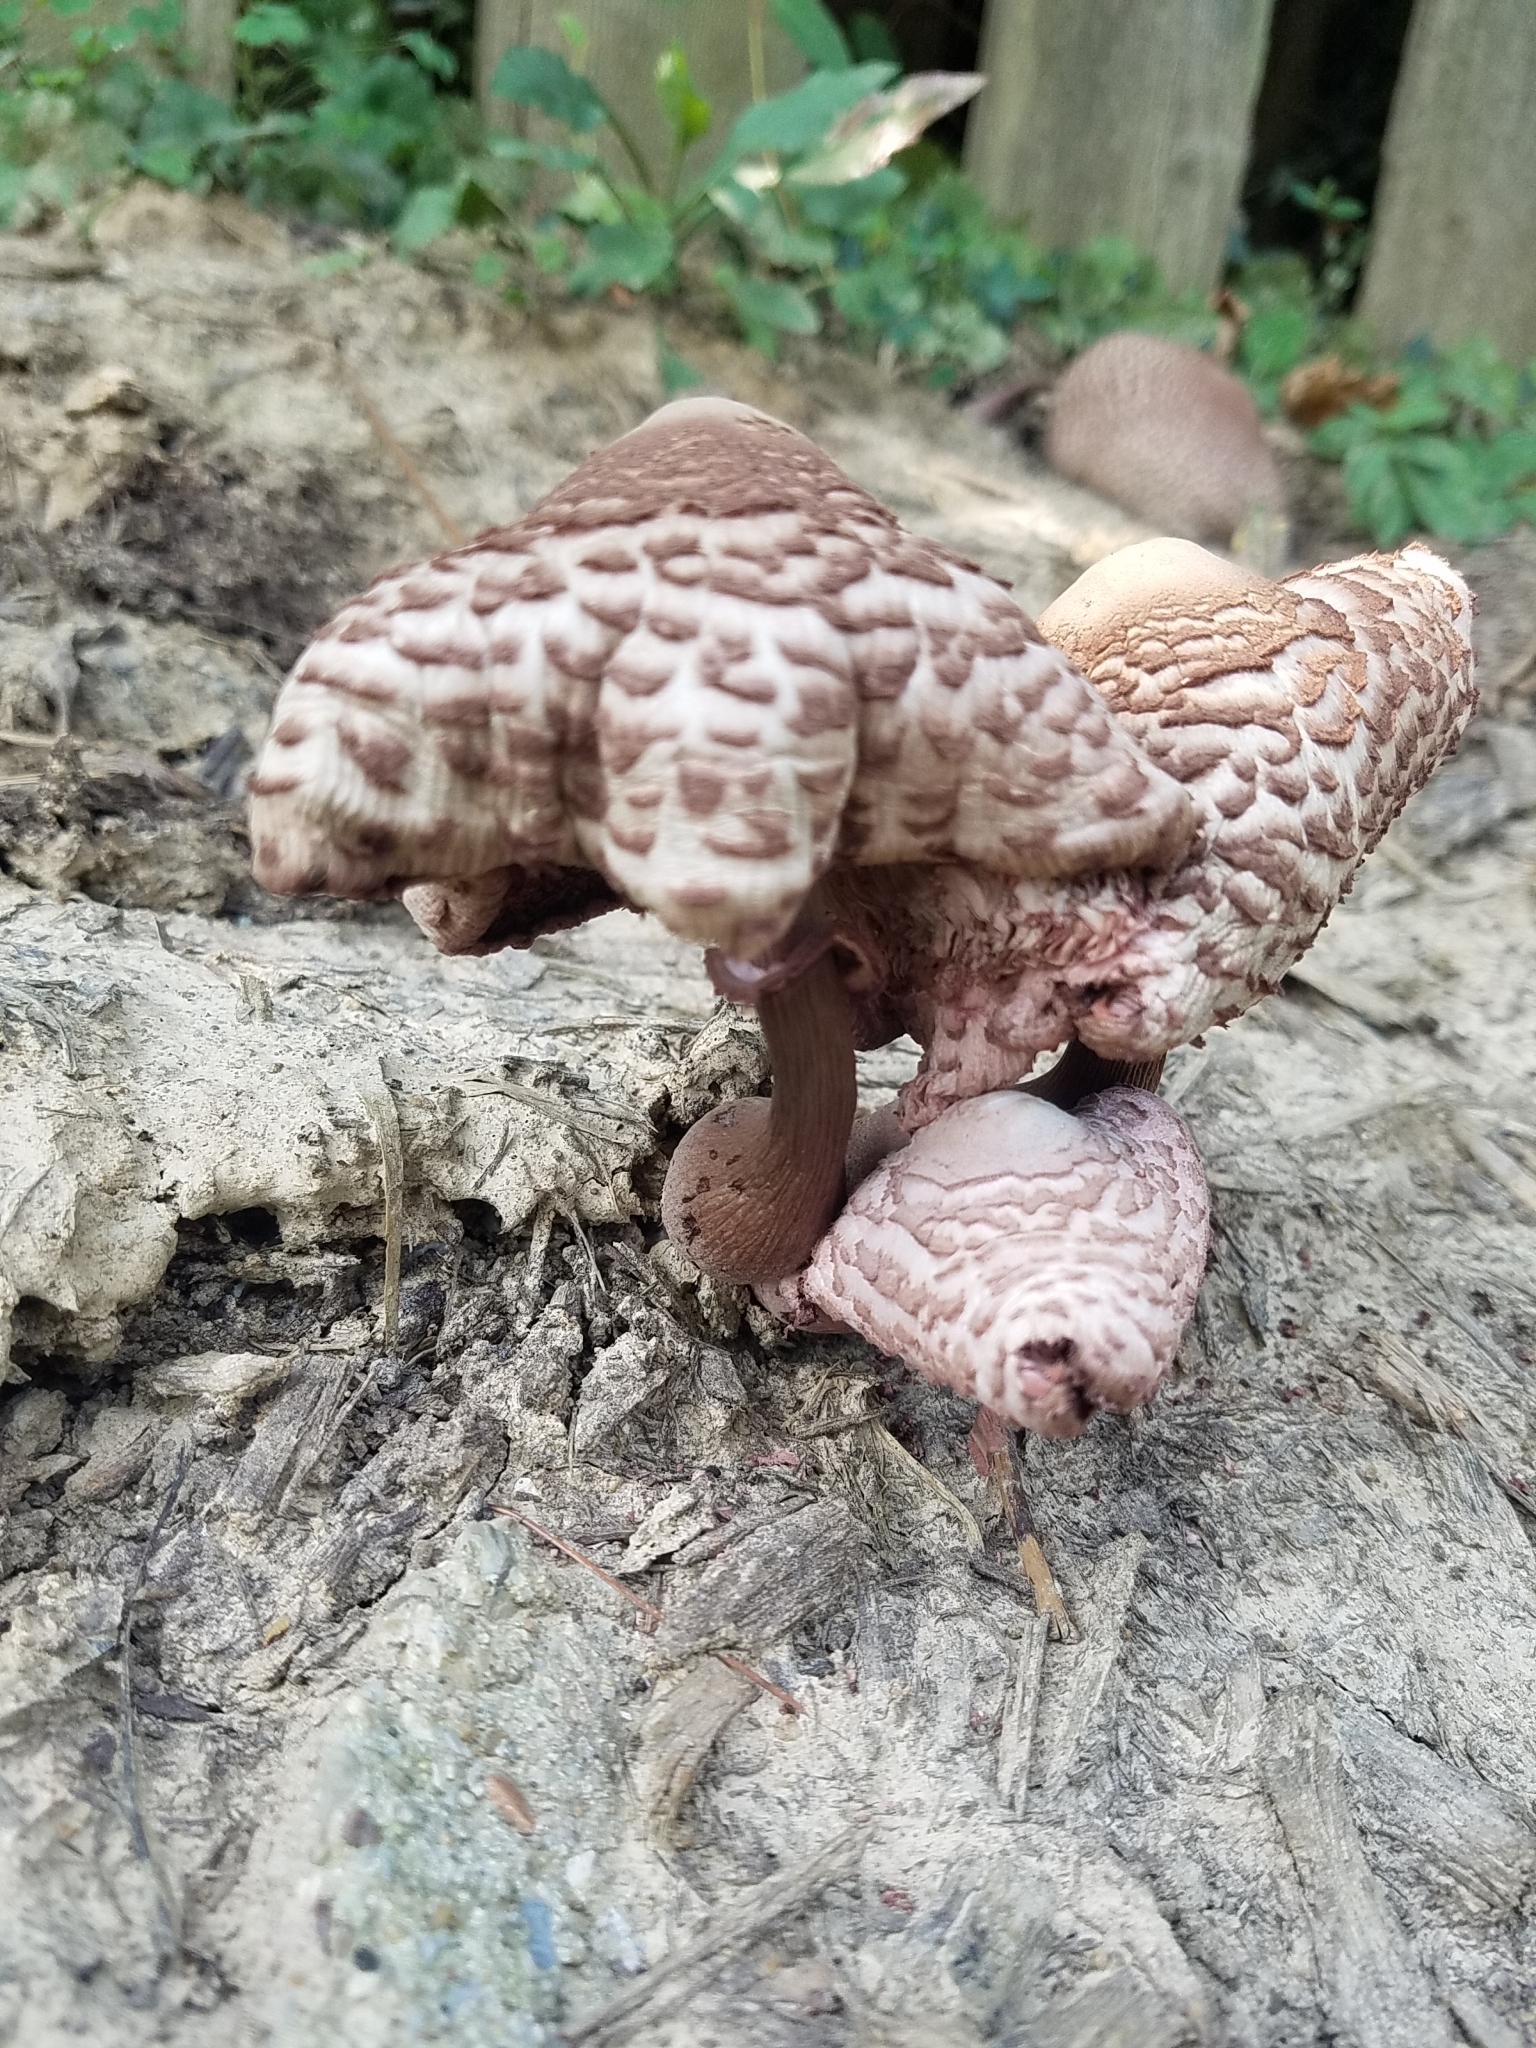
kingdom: Fungi
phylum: Basidiomycota
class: Agaricomycetes
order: Agaricales
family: Agaricaceae
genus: Leucoagaricus
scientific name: Leucoagaricus americanus
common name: Reddening lepiota
